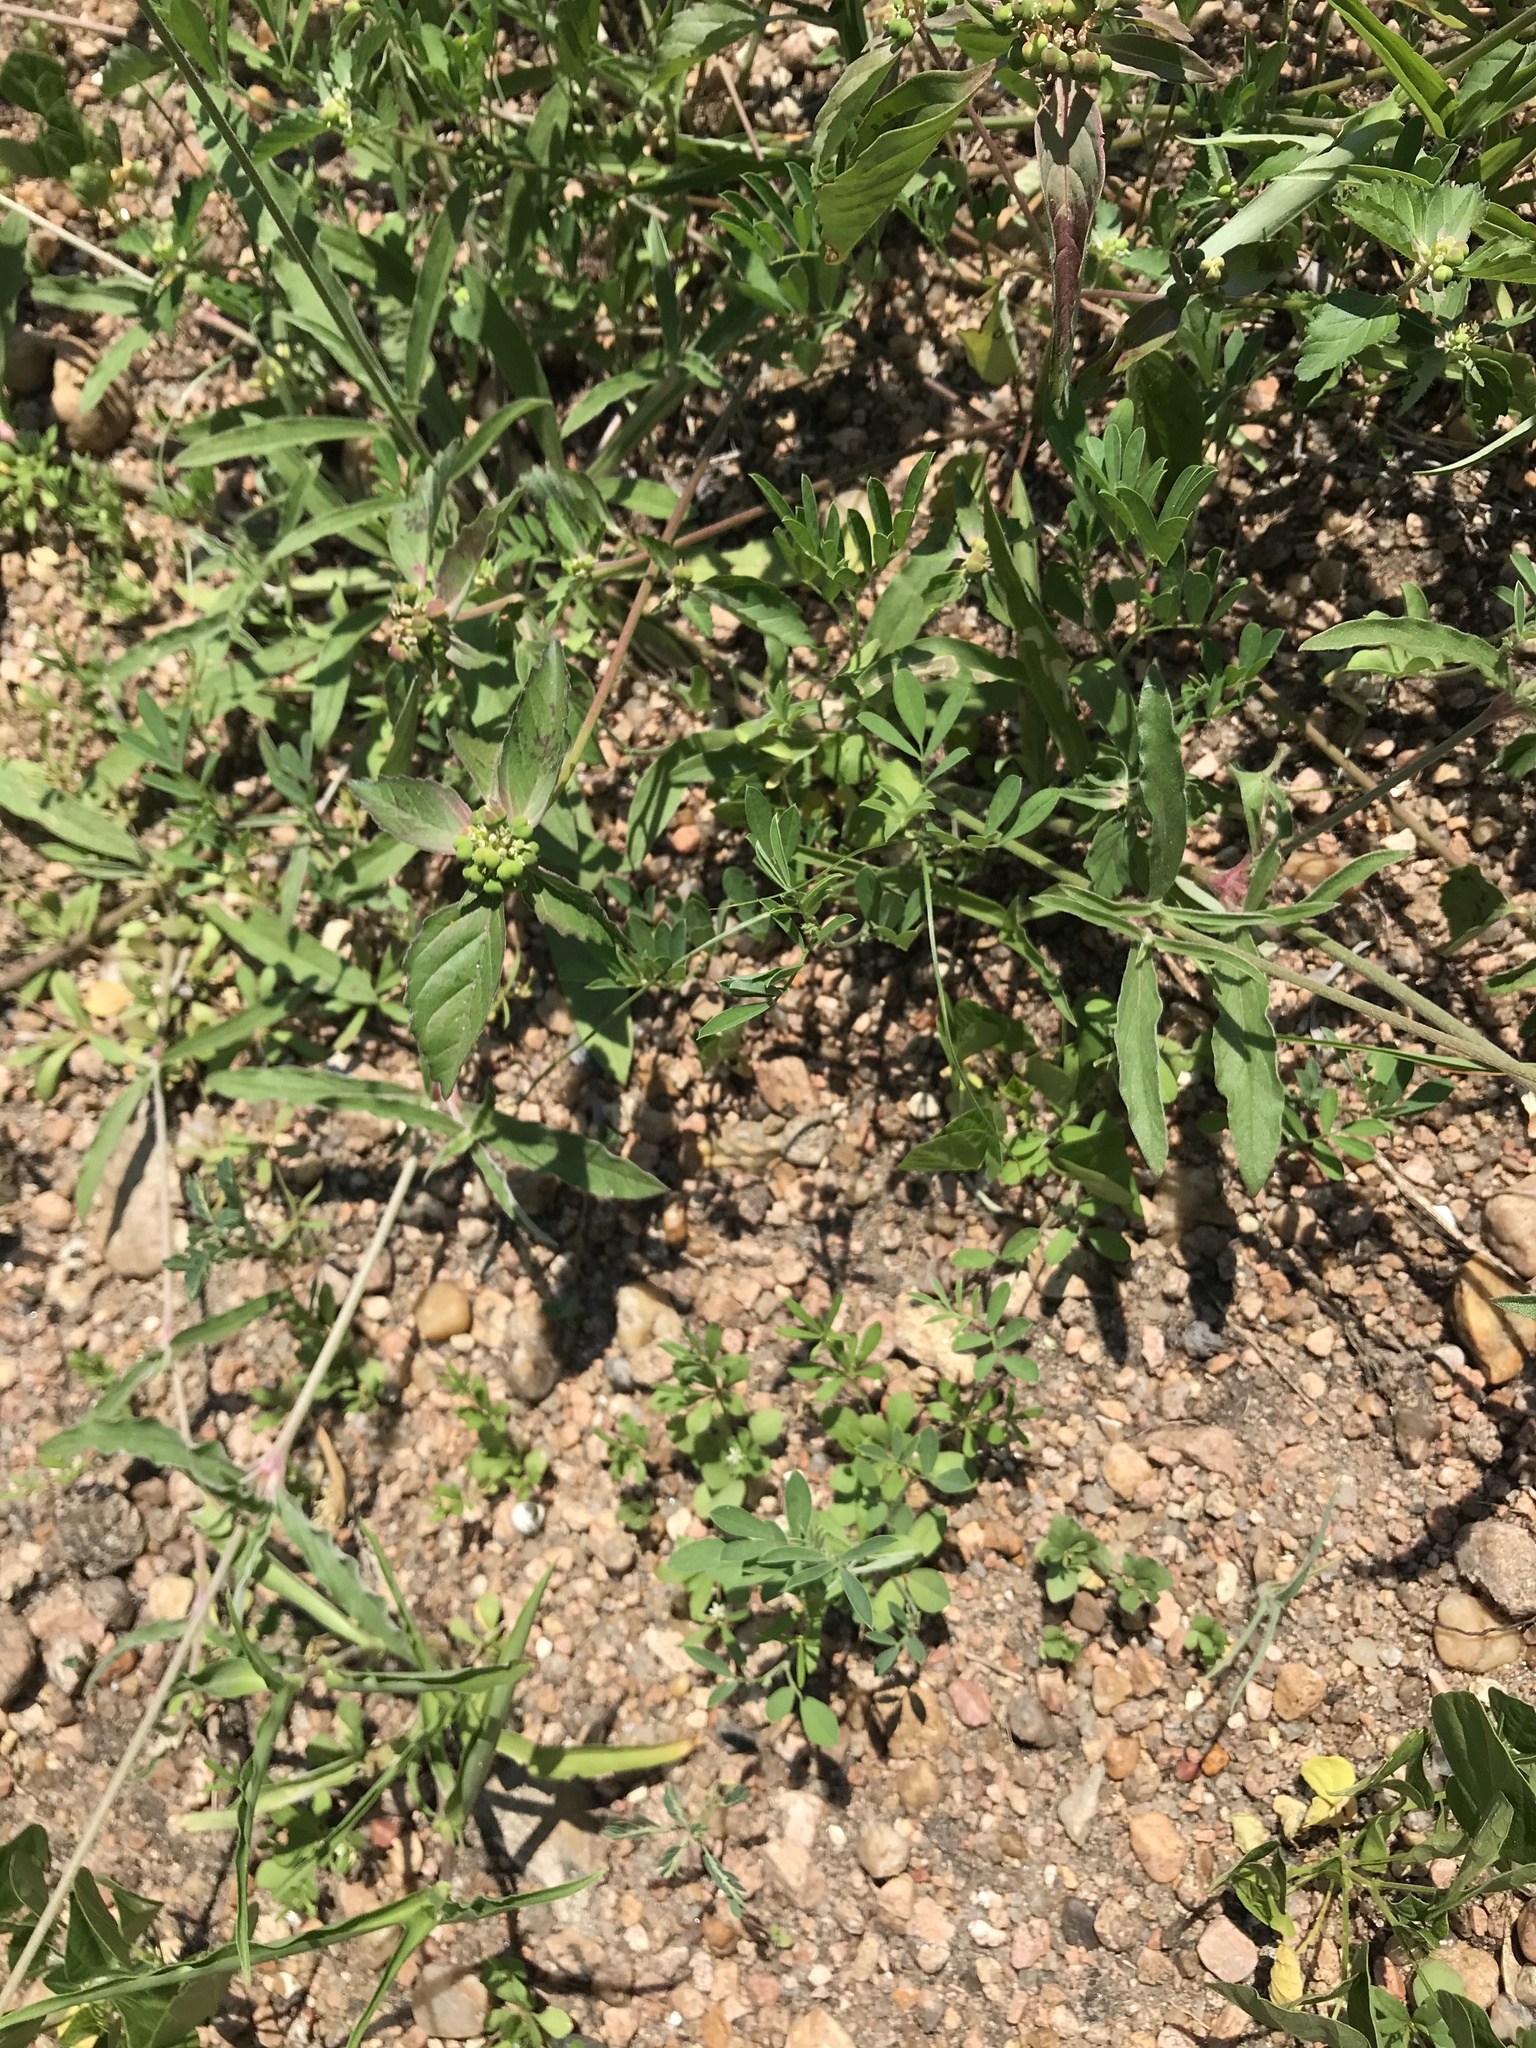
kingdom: Plantae
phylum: Tracheophyta
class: Magnoliopsida
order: Caryophyllales
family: Amaranthaceae
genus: Froelichia
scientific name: Froelichia gracilis
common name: Slender cottonweed
